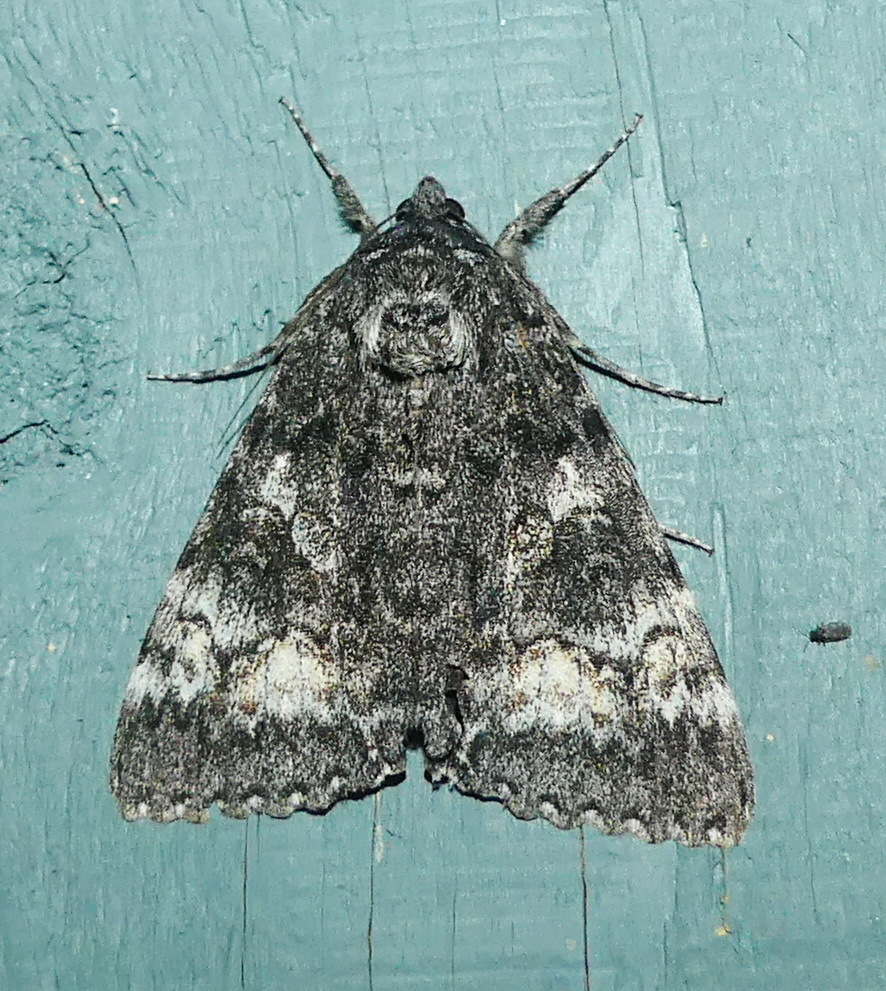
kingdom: Animalia
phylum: Arthropoda
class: Insecta
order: Lepidoptera
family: Erebidae
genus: Catocala
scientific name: Catocala briseis
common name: Briseis underwing
